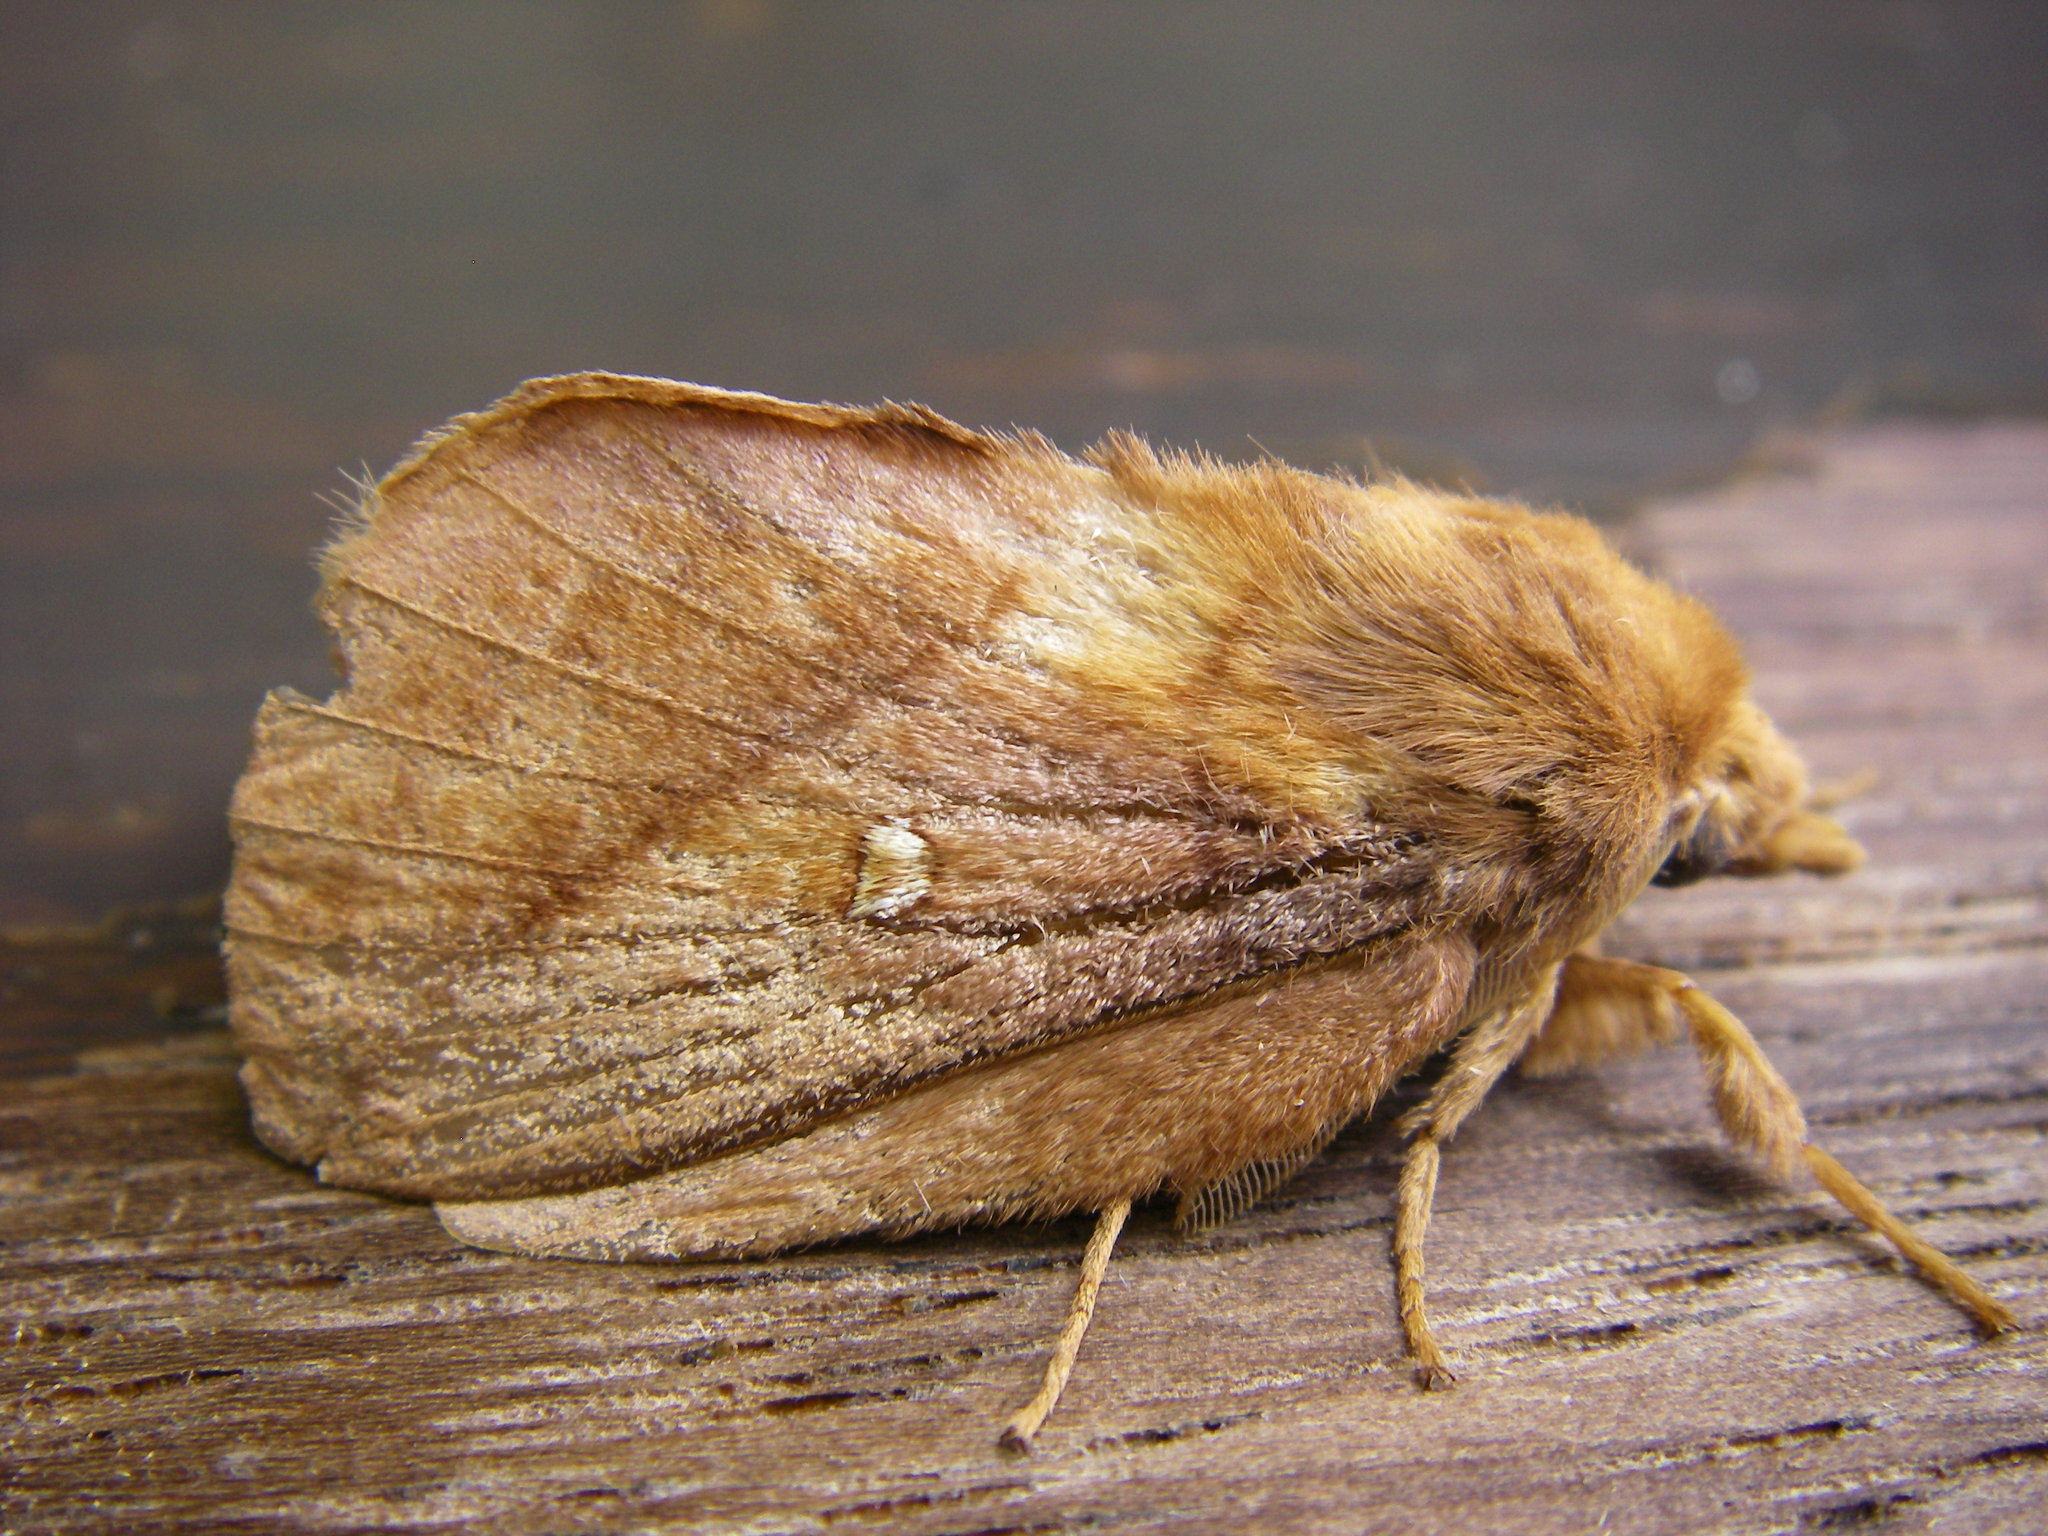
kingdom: Animalia
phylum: Arthropoda
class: Insecta
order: Lepidoptera
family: Lasiocampidae
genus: Euthrix
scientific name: Euthrix potatoria
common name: Drinker
